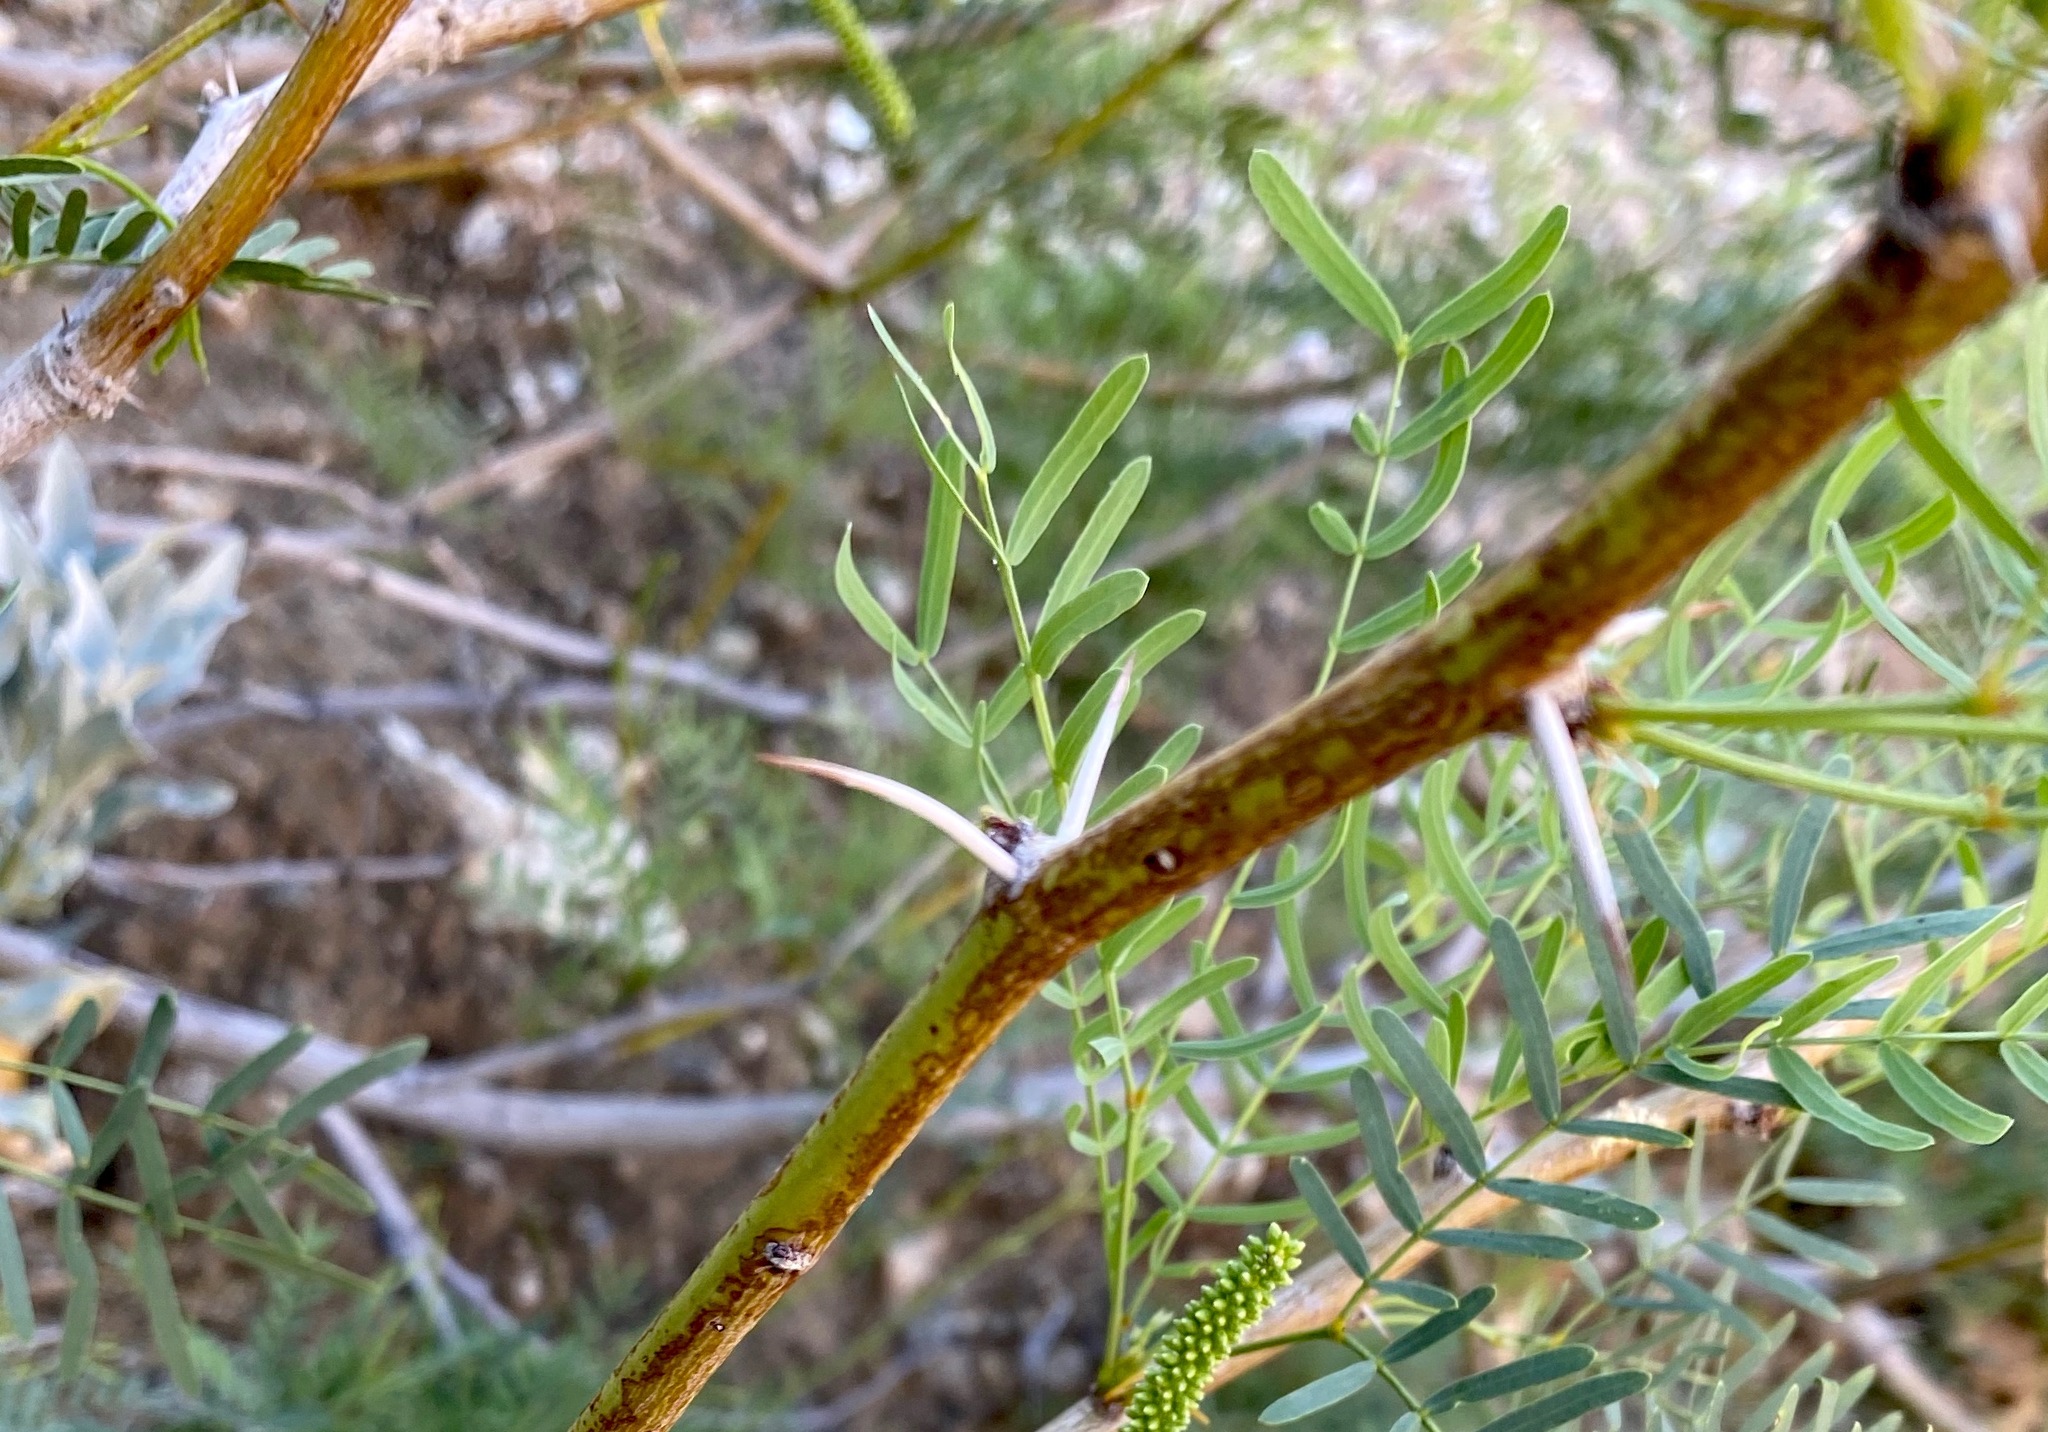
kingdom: Plantae
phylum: Tracheophyta
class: Magnoliopsida
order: Fabales
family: Fabaceae
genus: Prosopis
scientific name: Prosopis pubescens
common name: Screw-bean
